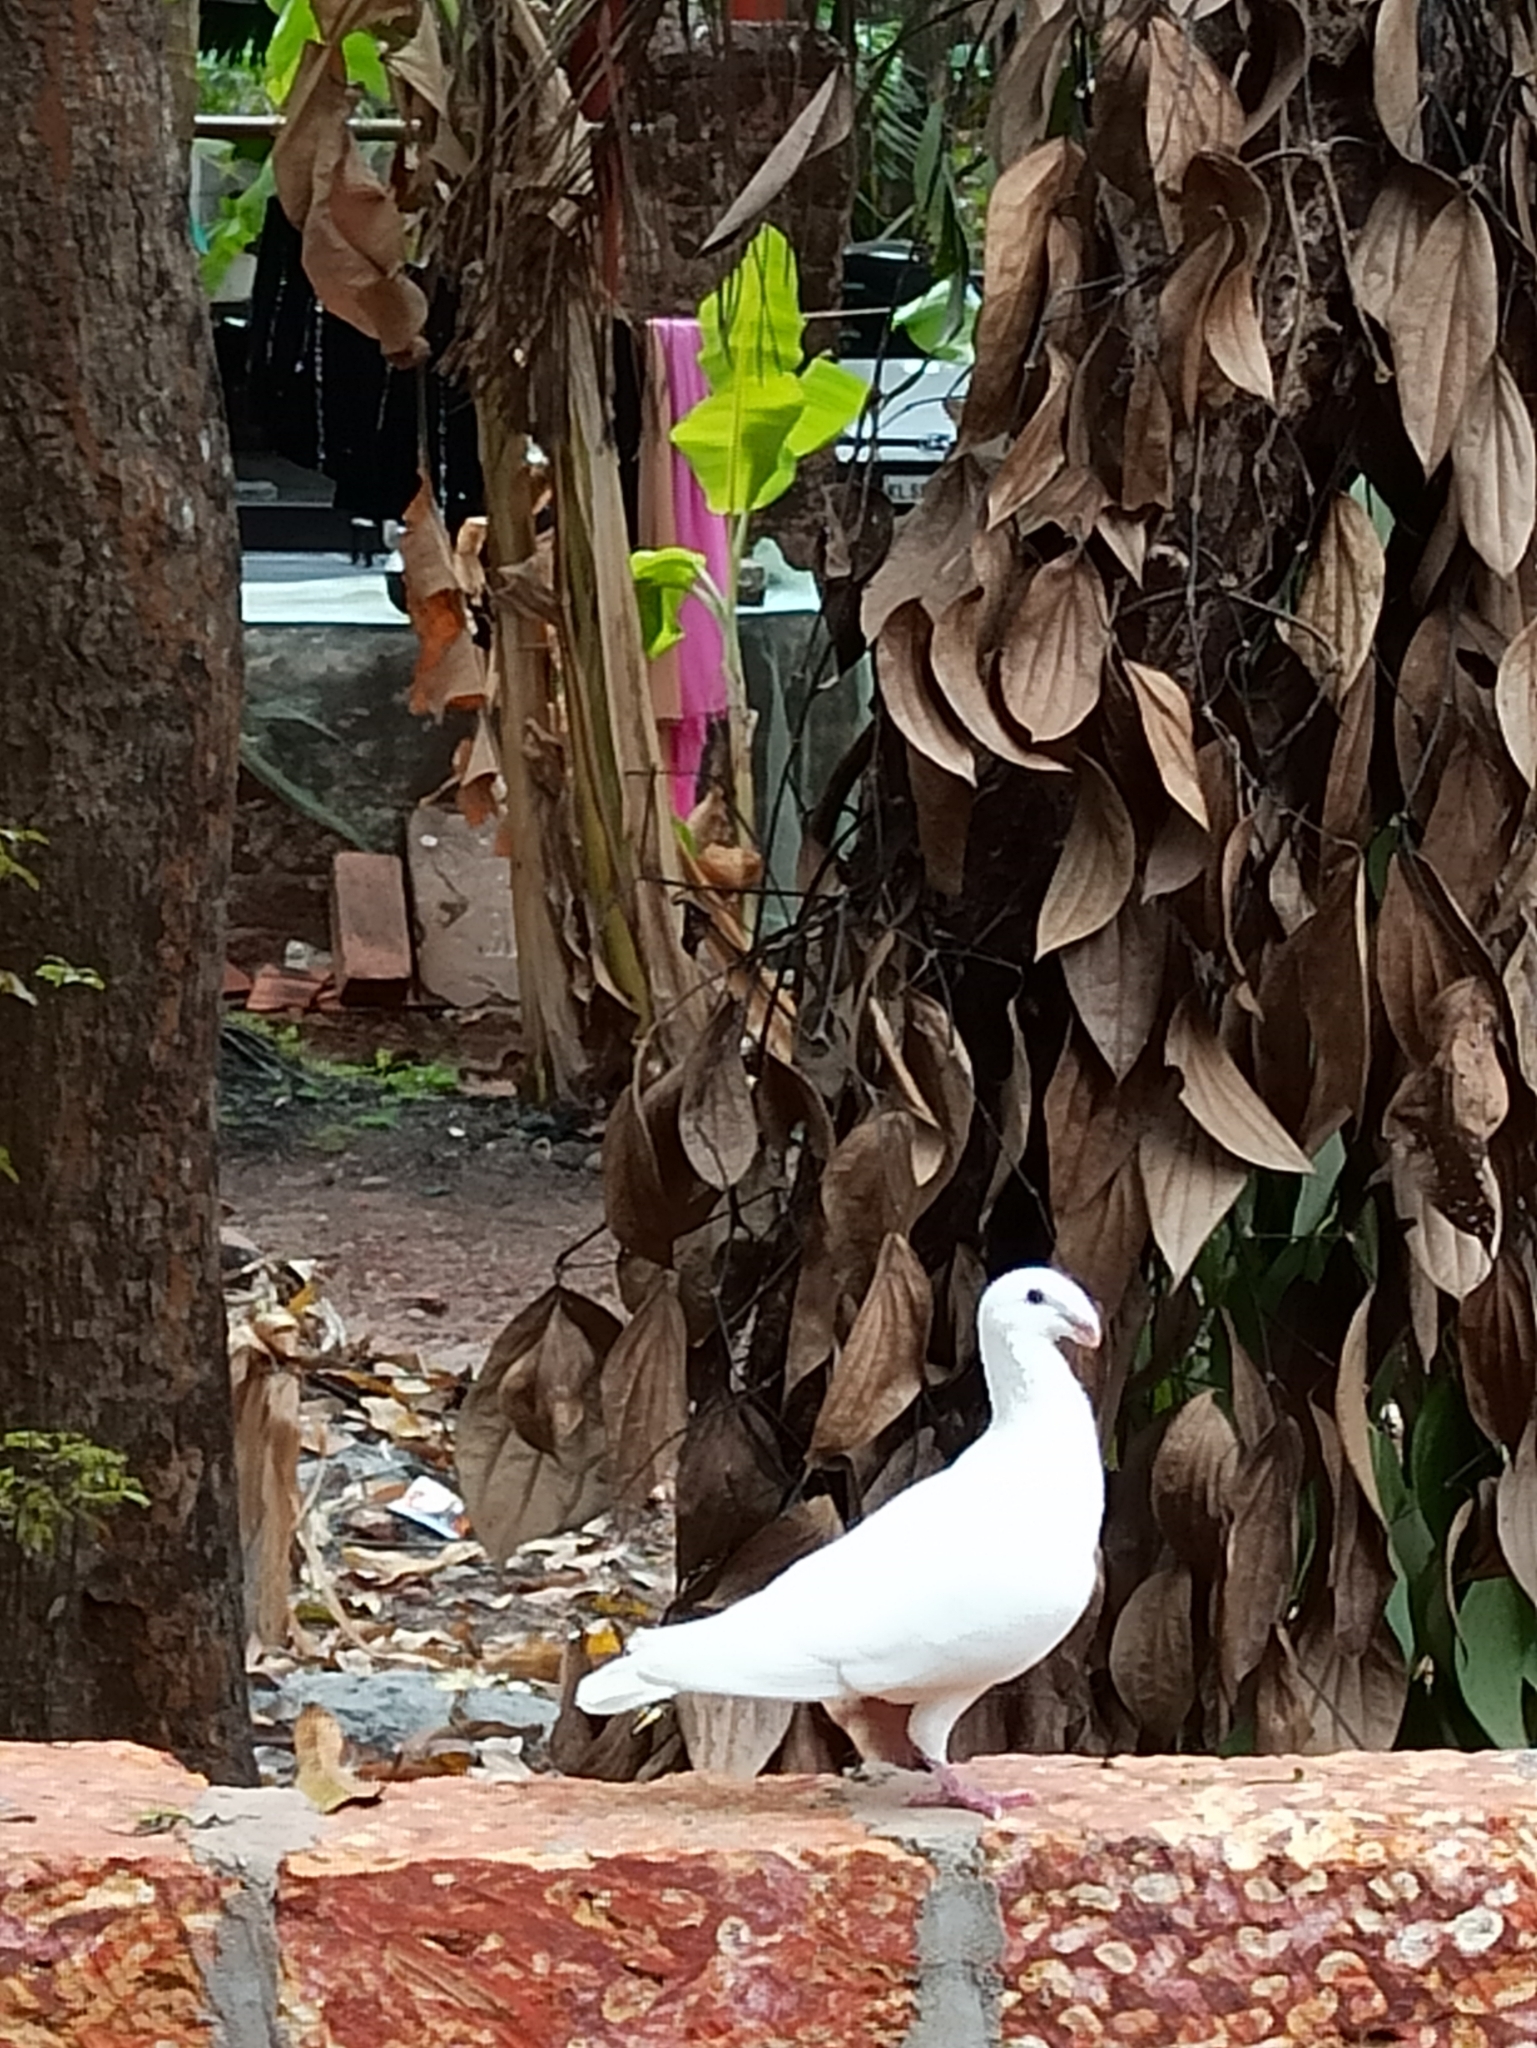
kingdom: Animalia
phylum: Chordata
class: Aves
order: Columbiformes
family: Columbidae
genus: Columba
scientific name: Columba livia
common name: Rock pigeon
